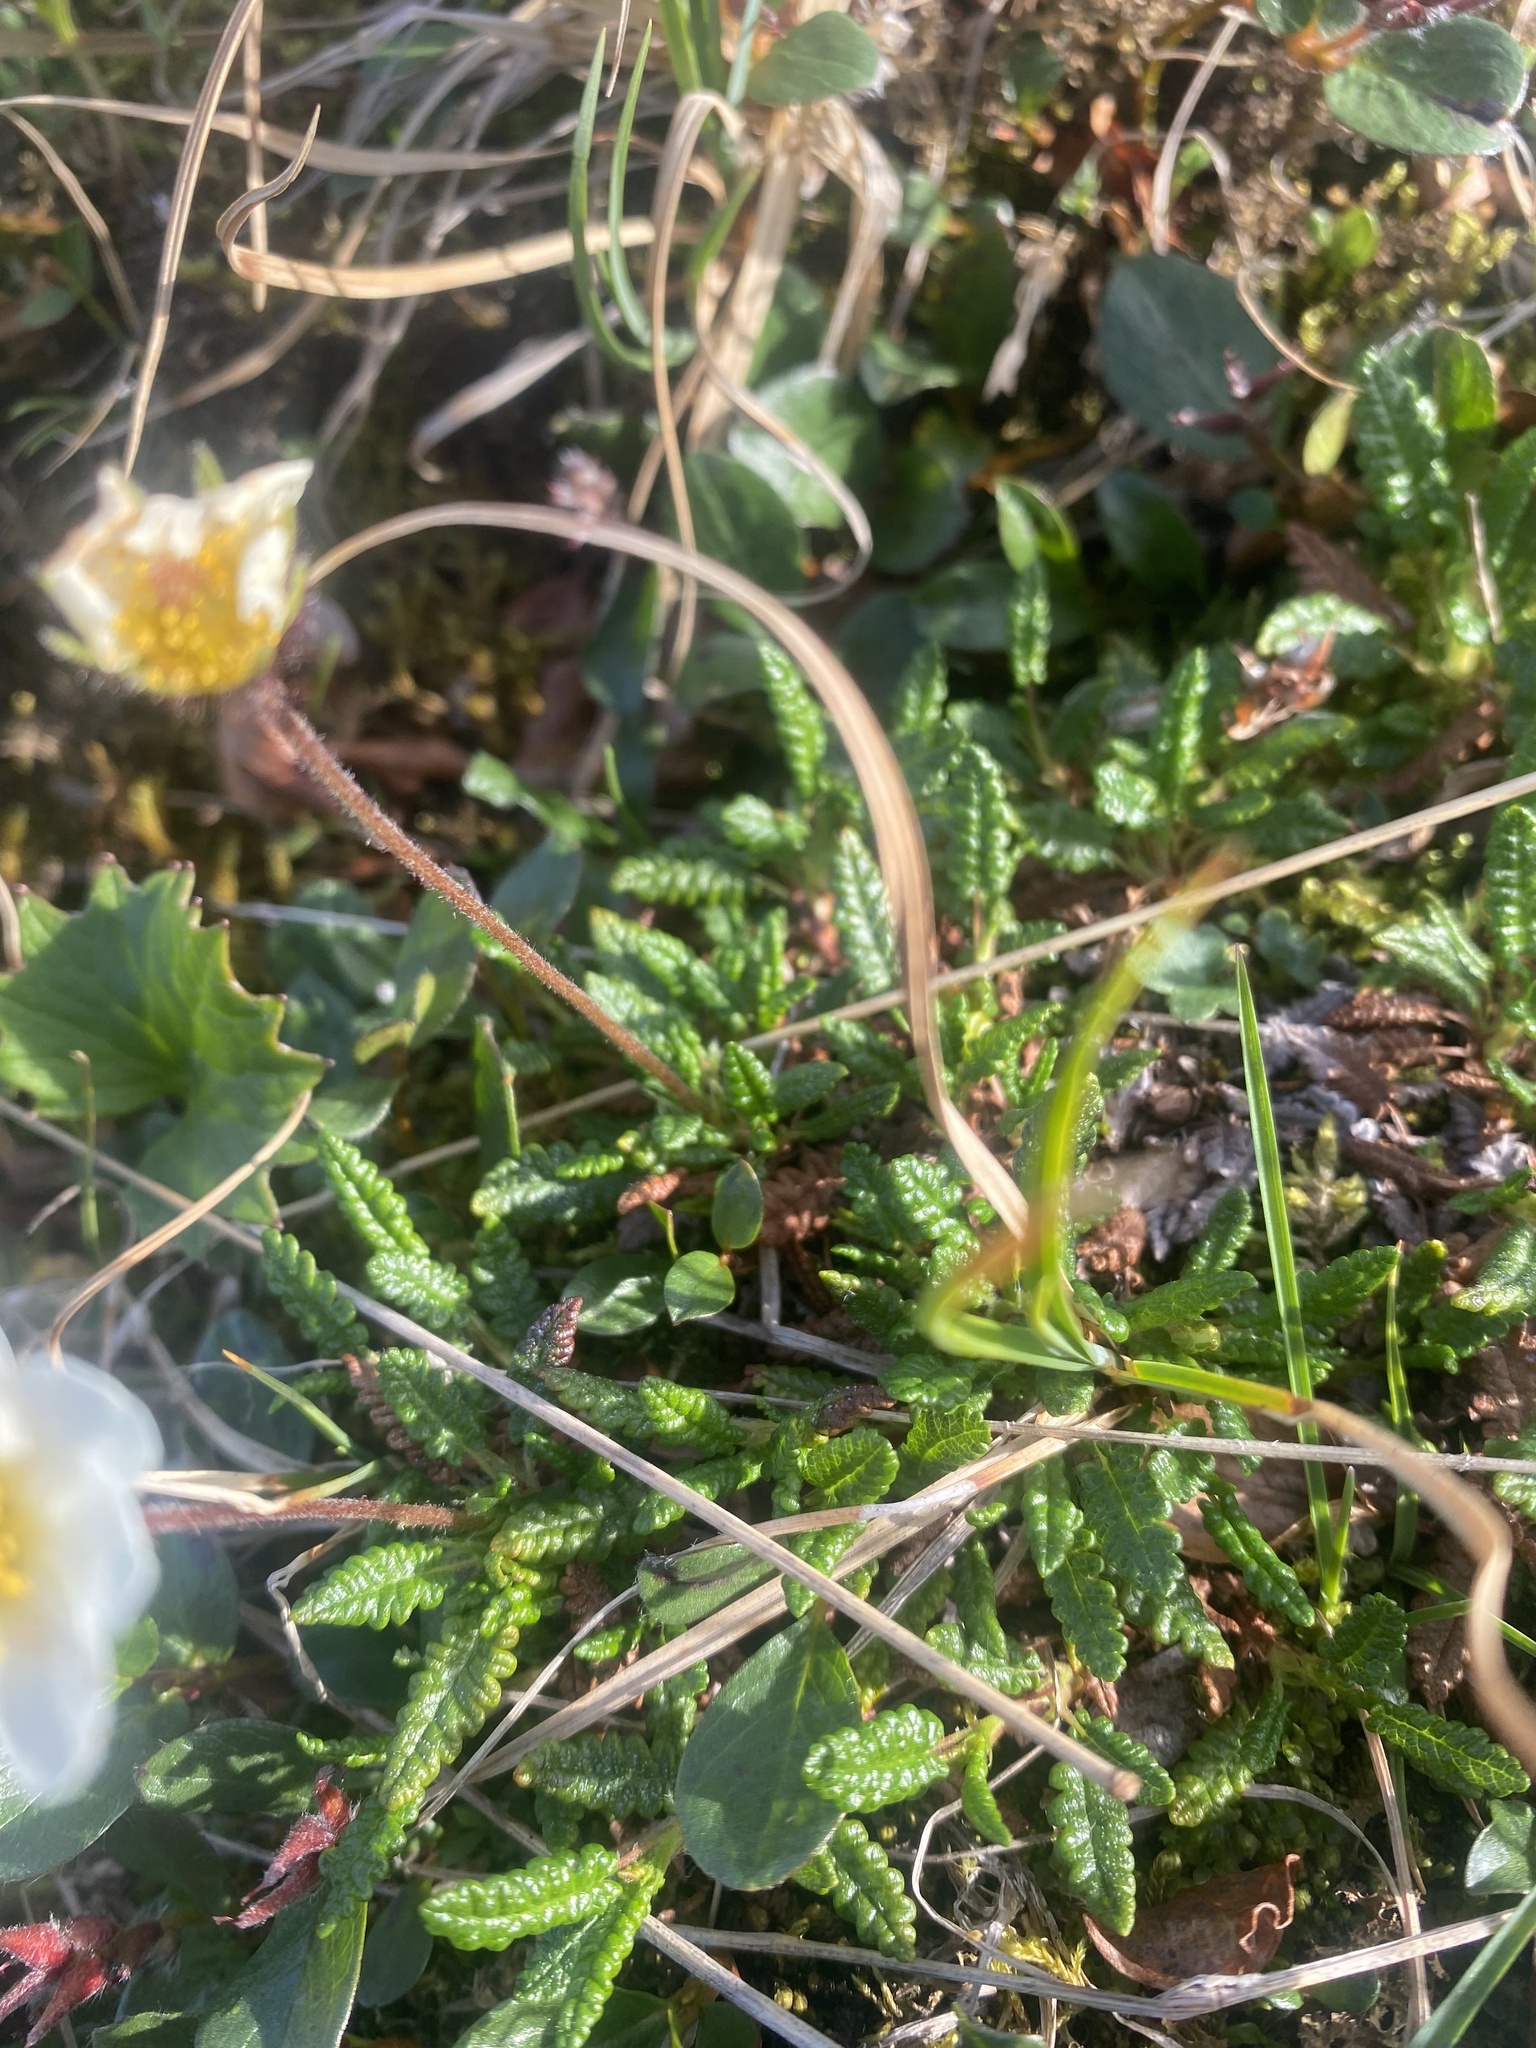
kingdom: Plantae
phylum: Tracheophyta
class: Magnoliopsida
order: Rosales
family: Rosaceae
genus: Dryas
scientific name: Dryas octopetala
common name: Eight-petal mountain-avens
